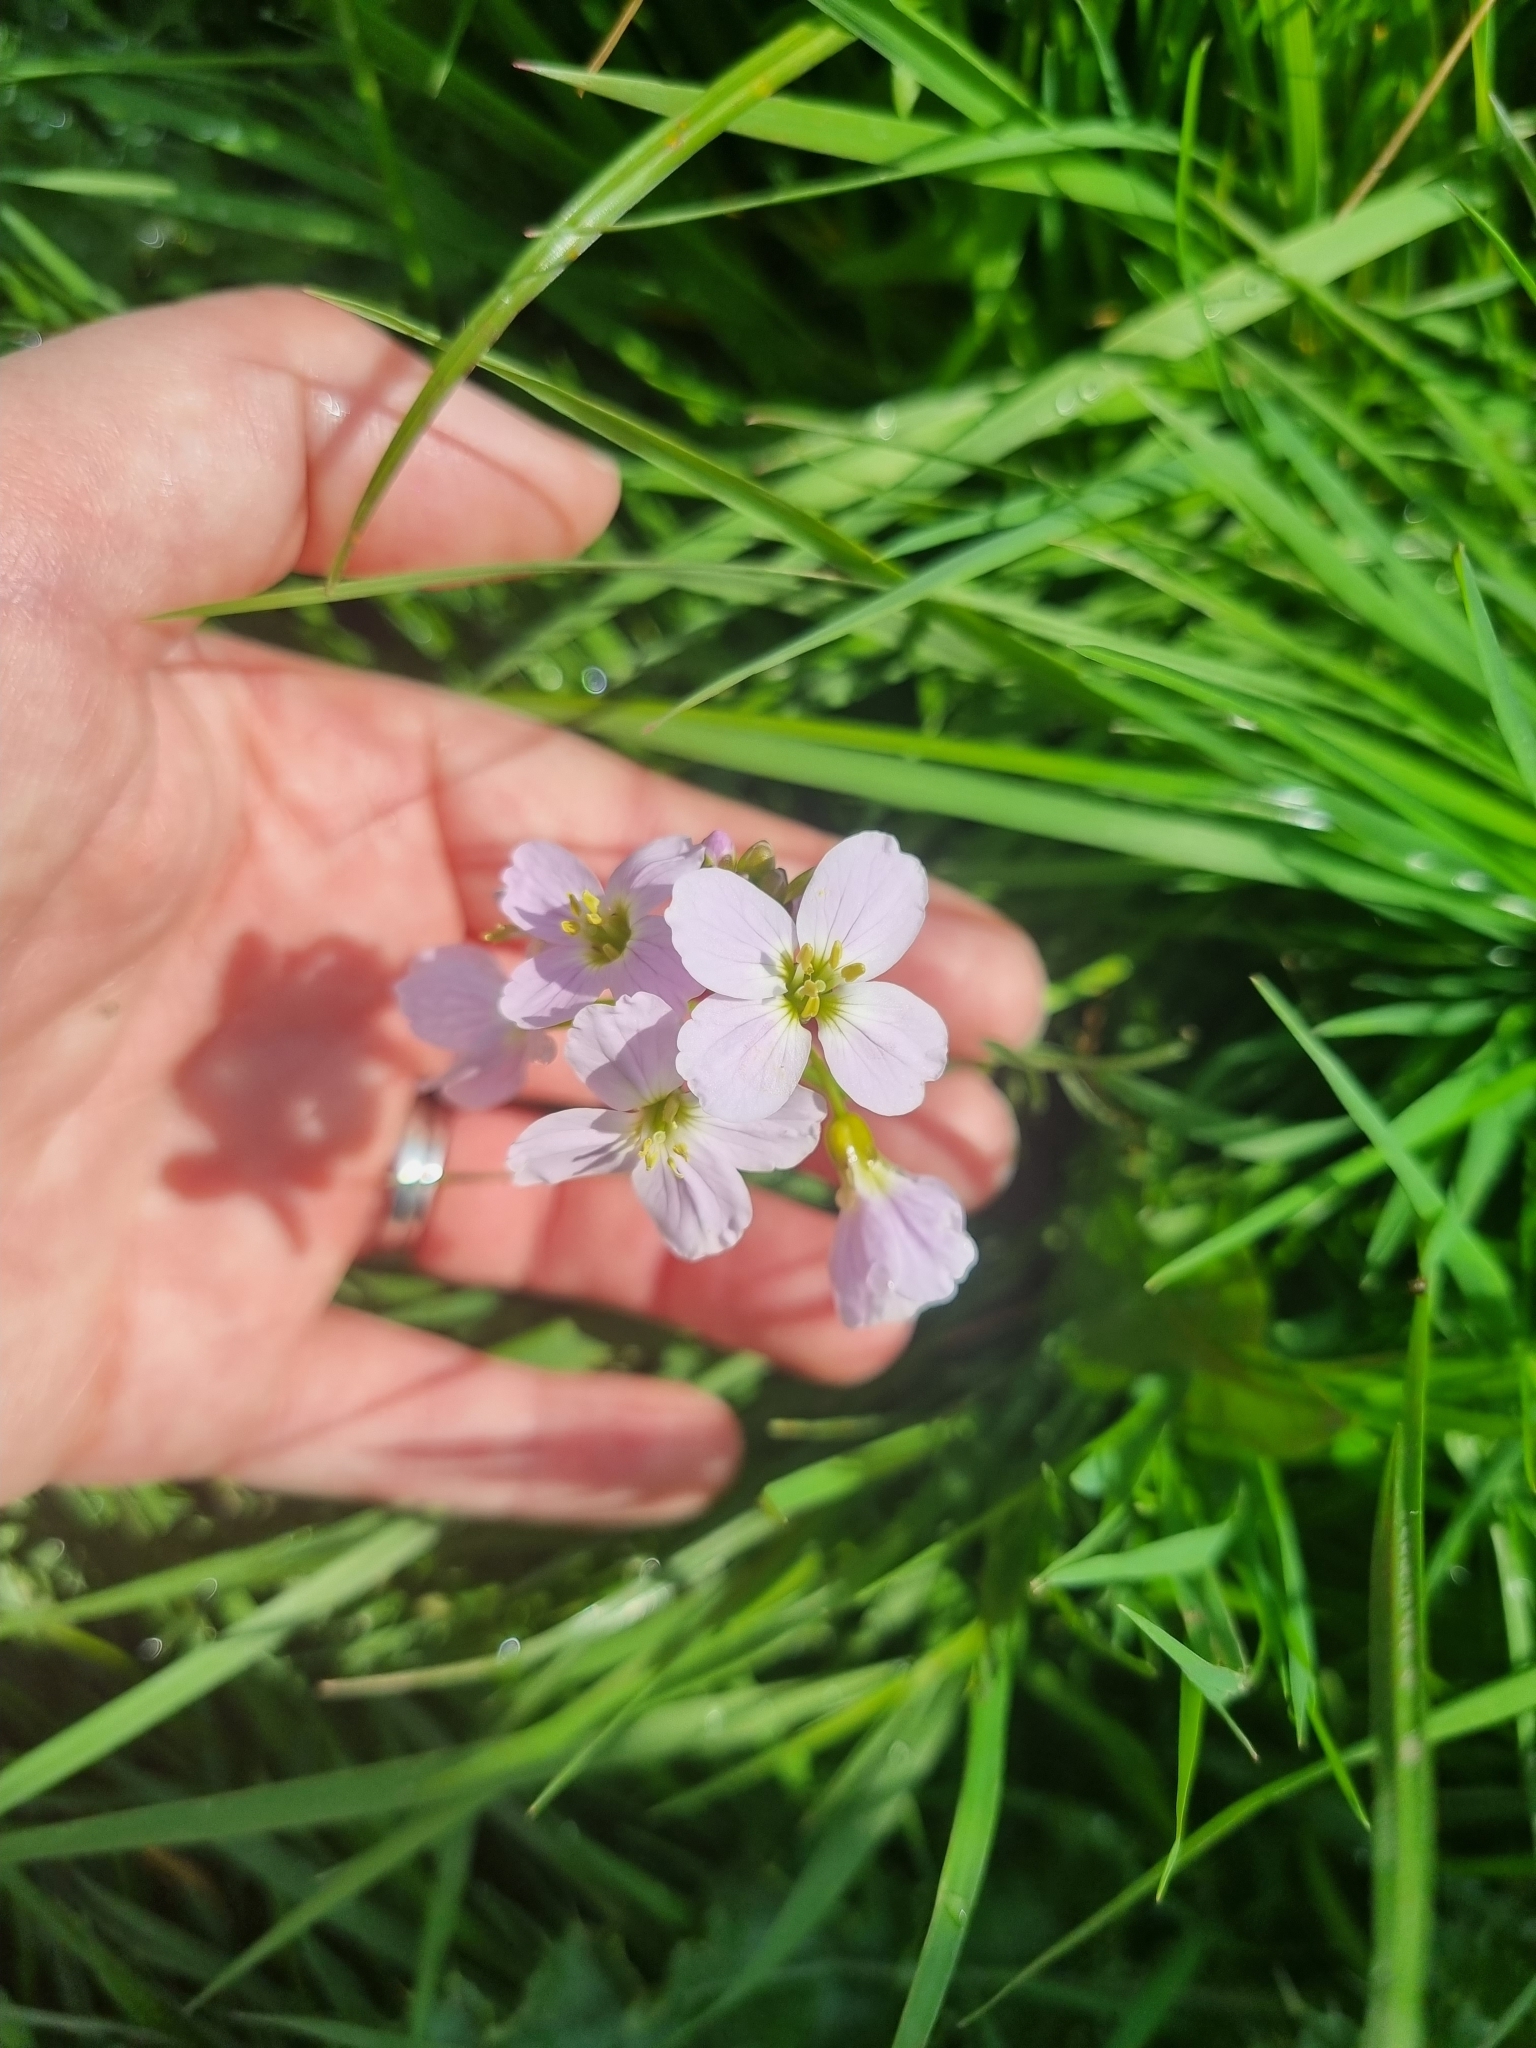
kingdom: Plantae
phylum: Tracheophyta
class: Magnoliopsida
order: Brassicales
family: Brassicaceae
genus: Cardamine
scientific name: Cardamine pratensis
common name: Cuckoo flower
